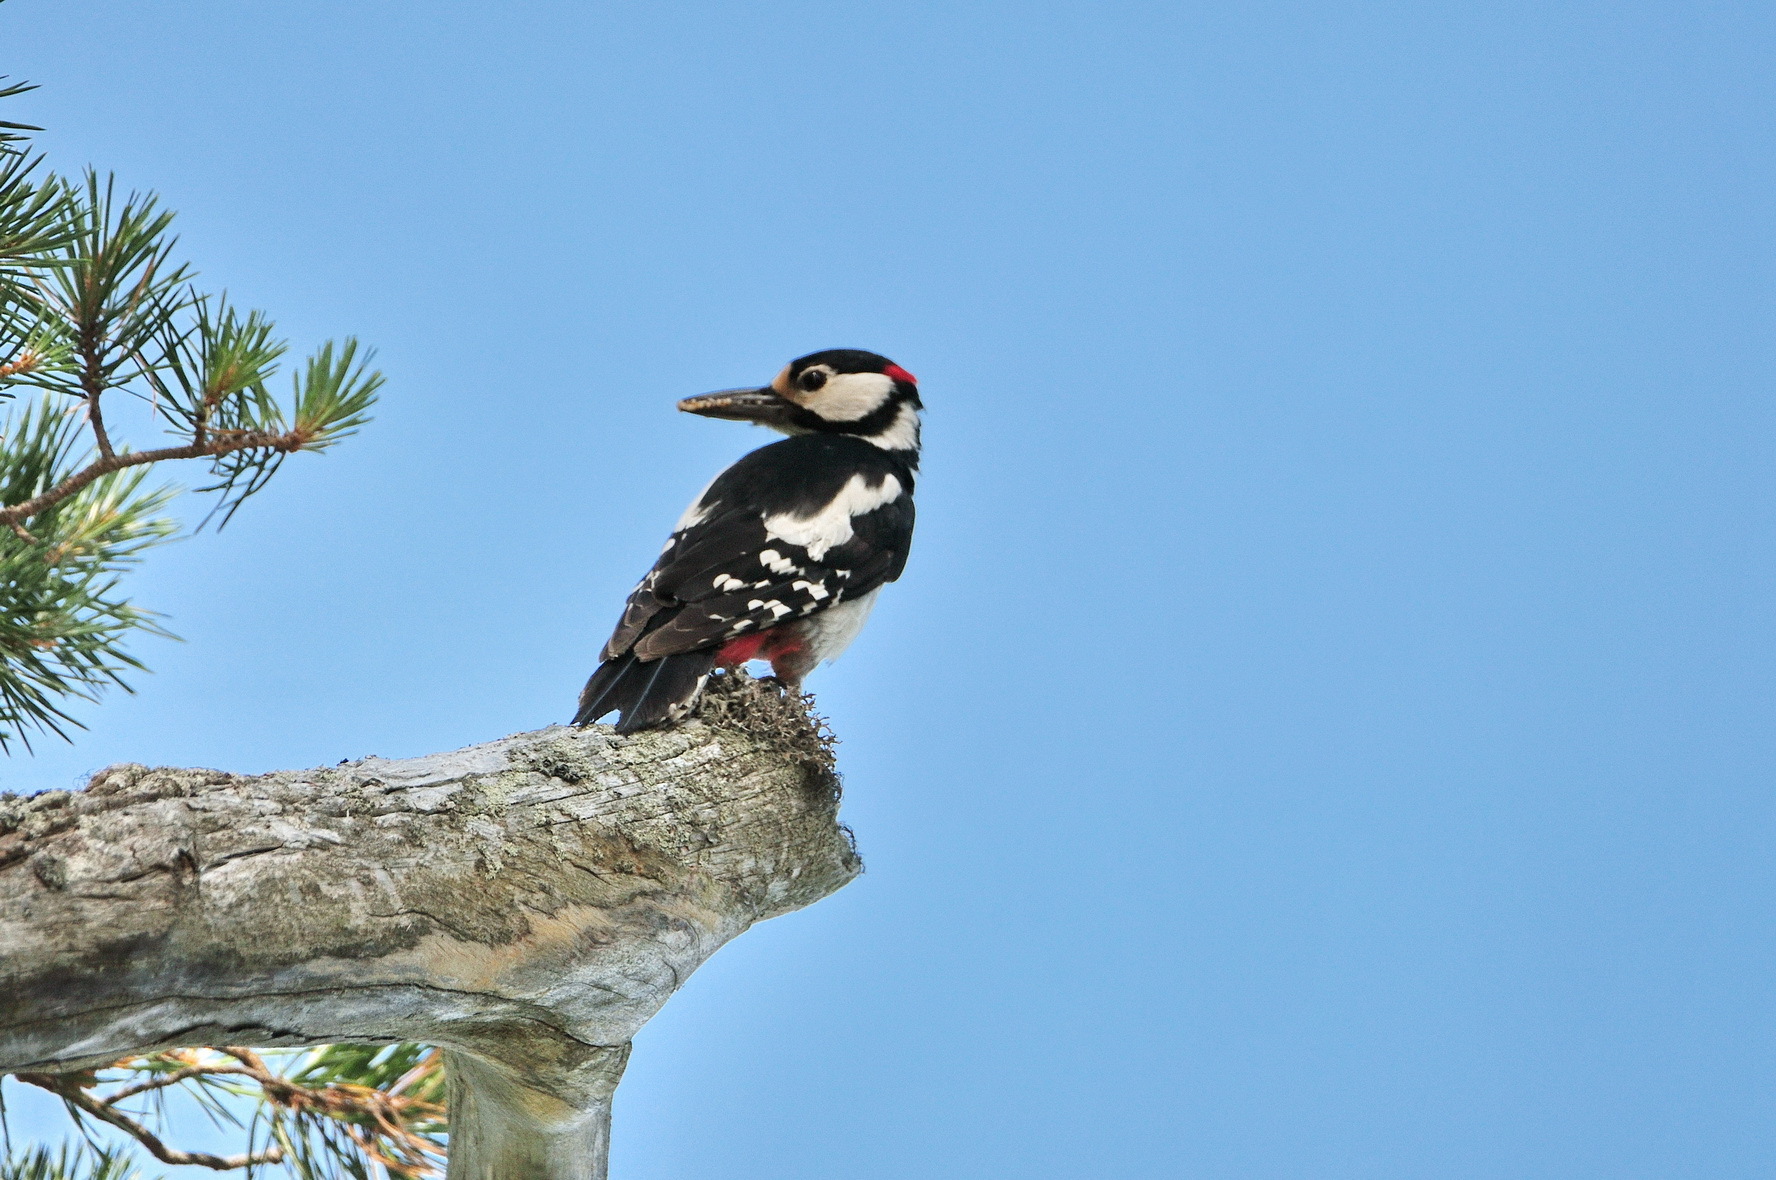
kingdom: Animalia
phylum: Chordata
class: Aves
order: Piciformes
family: Picidae
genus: Dendrocopos
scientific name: Dendrocopos major
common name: Great spotted woodpecker
